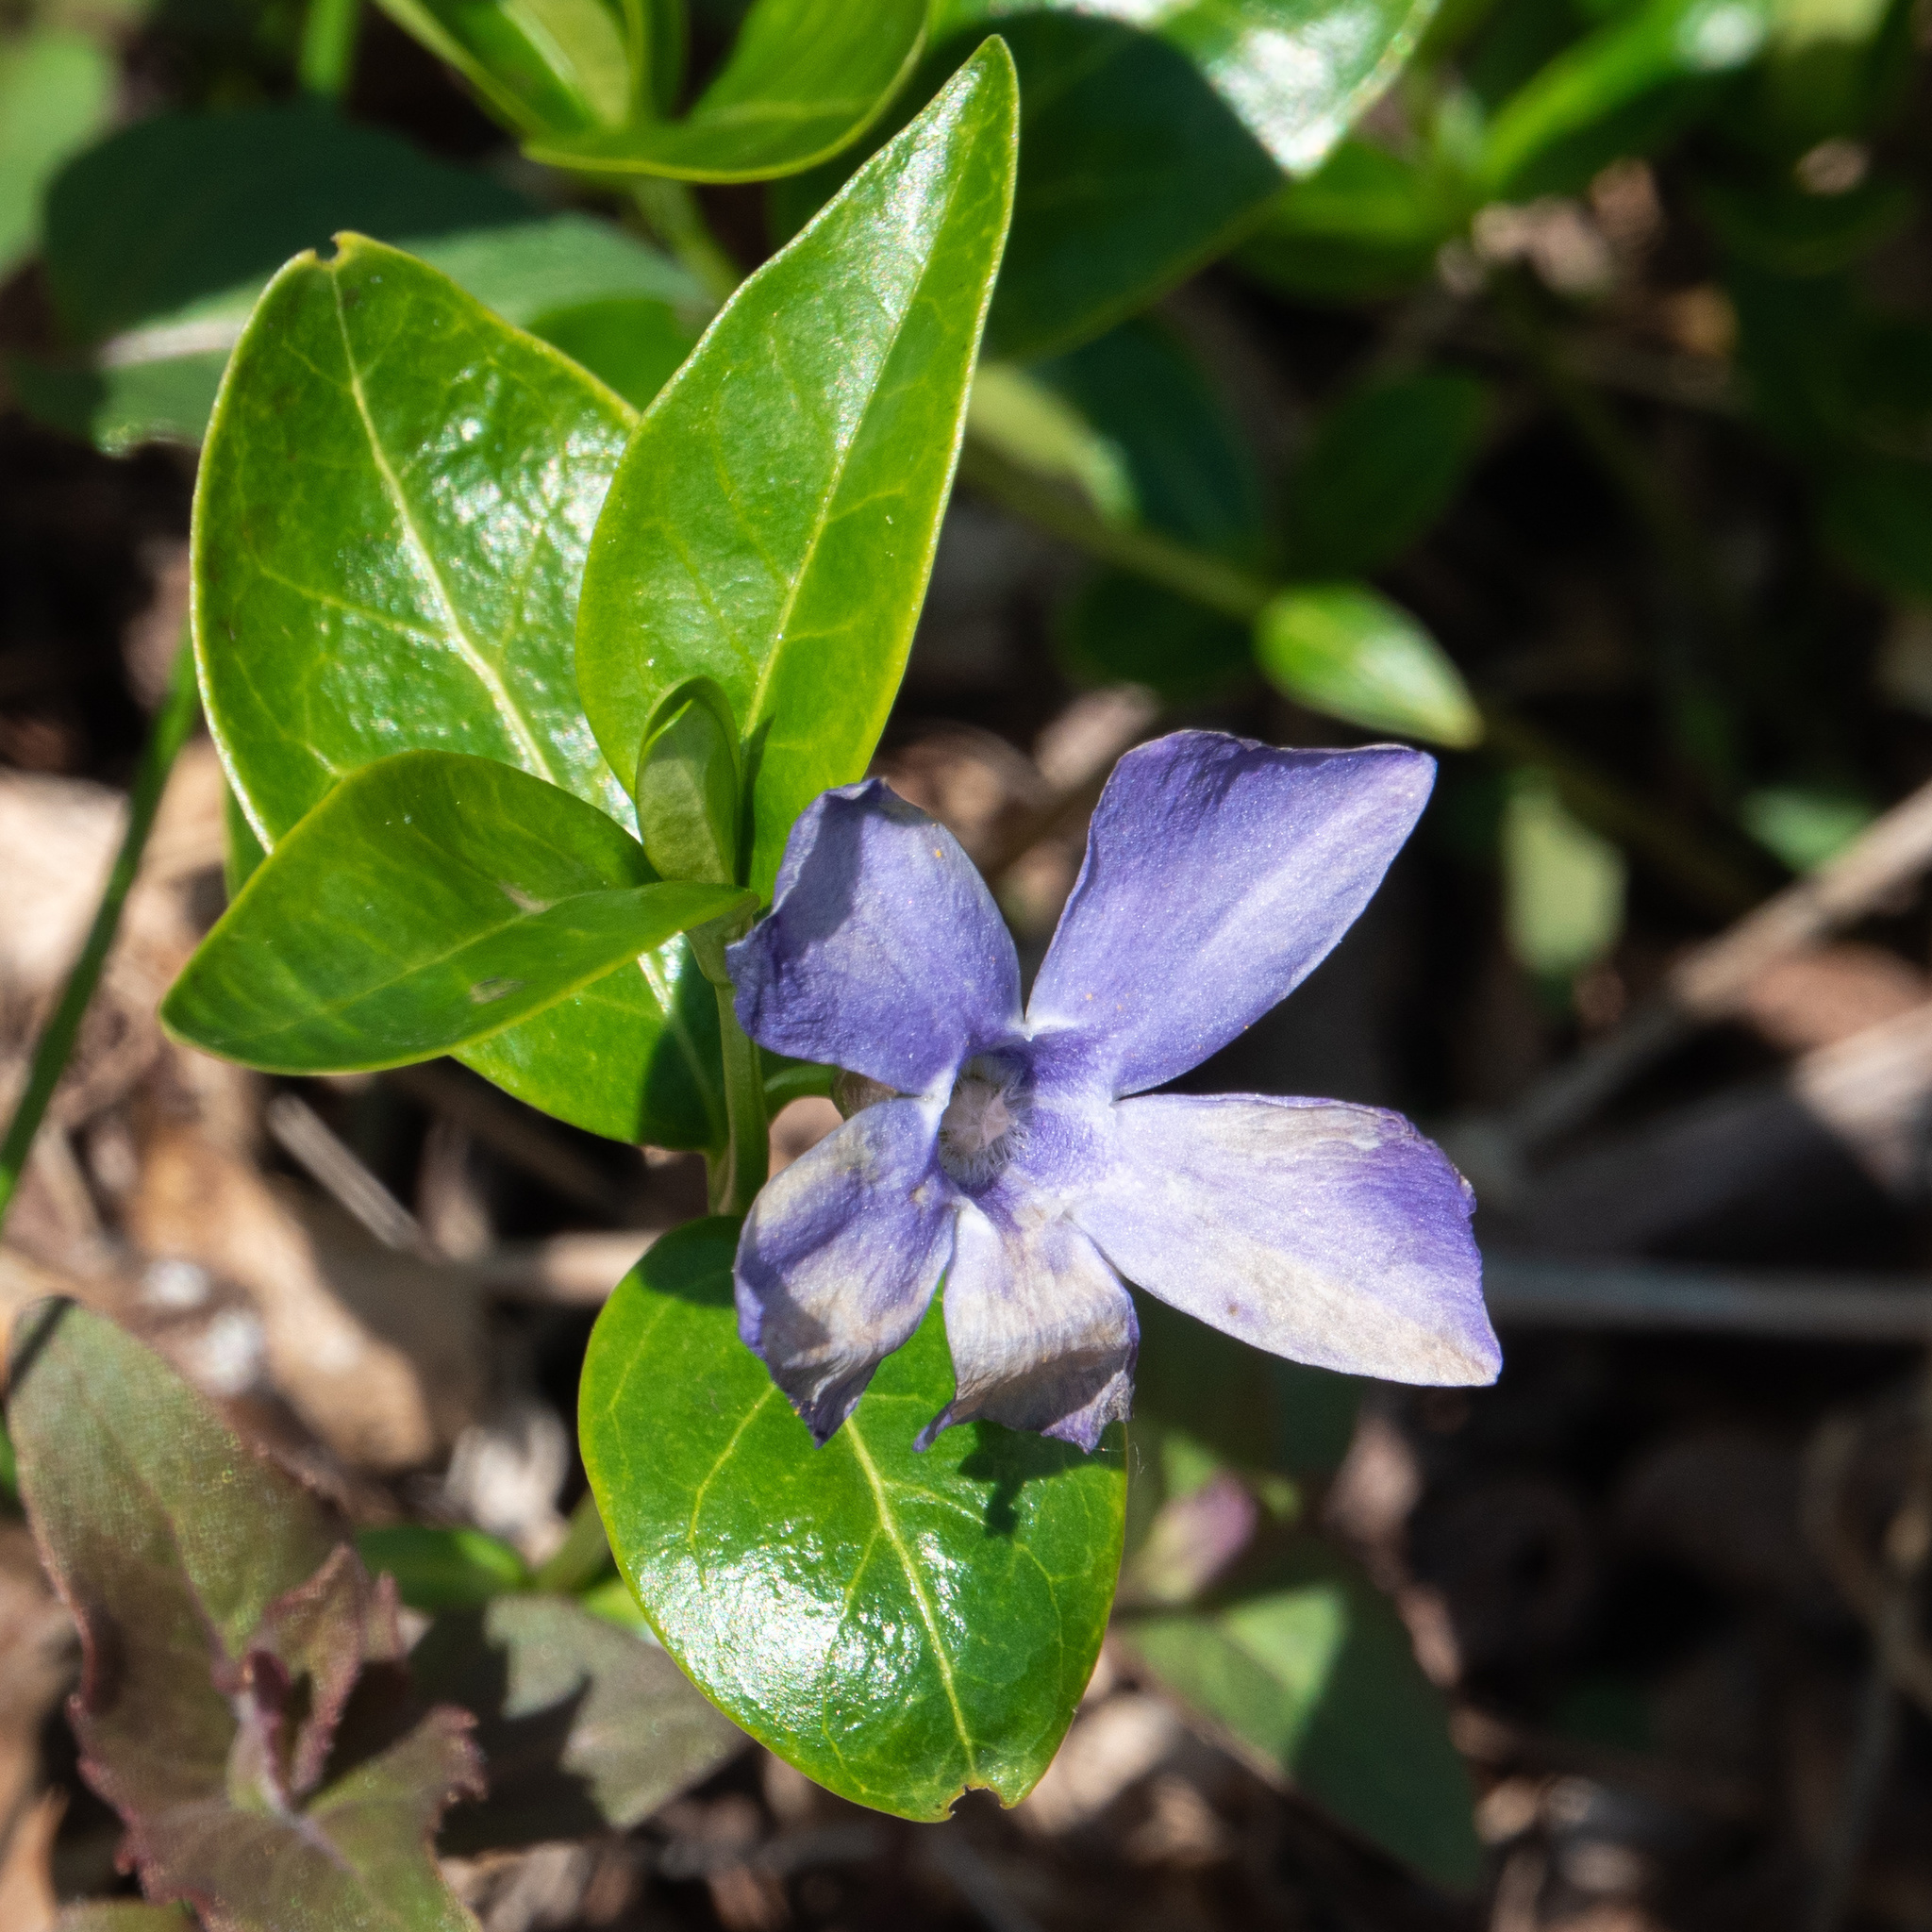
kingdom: Plantae
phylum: Tracheophyta
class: Magnoliopsida
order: Gentianales
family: Apocynaceae
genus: Vinca
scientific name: Vinca minor
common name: Lesser periwinkle
